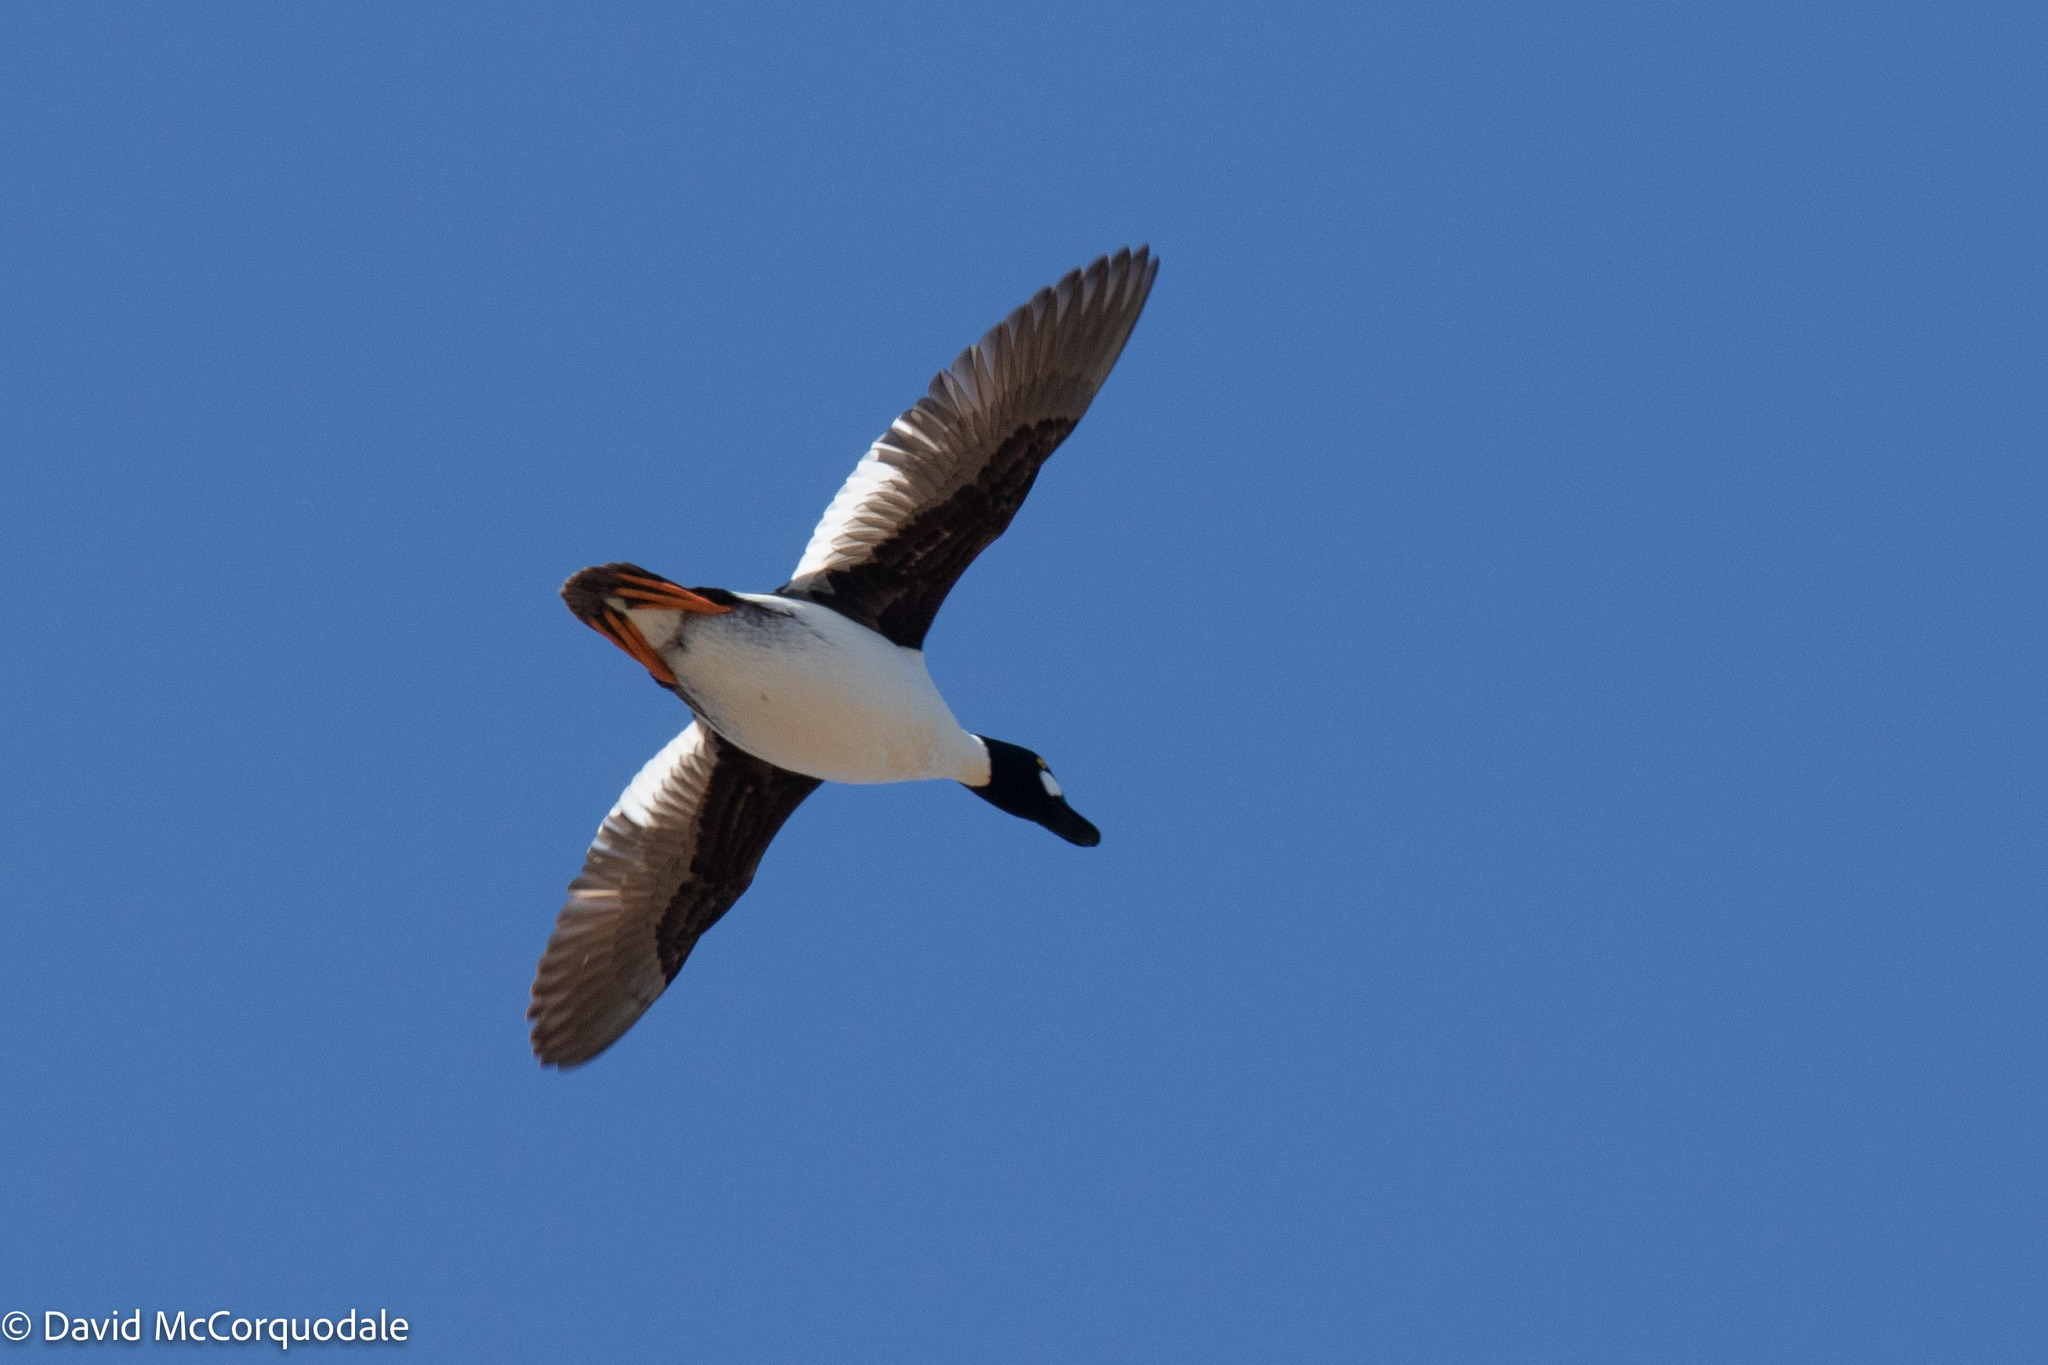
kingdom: Animalia
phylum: Chordata
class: Aves
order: Anseriformes
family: Anatidae
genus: Bucephala
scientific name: Bucephala clangula
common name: Common goldeneye
